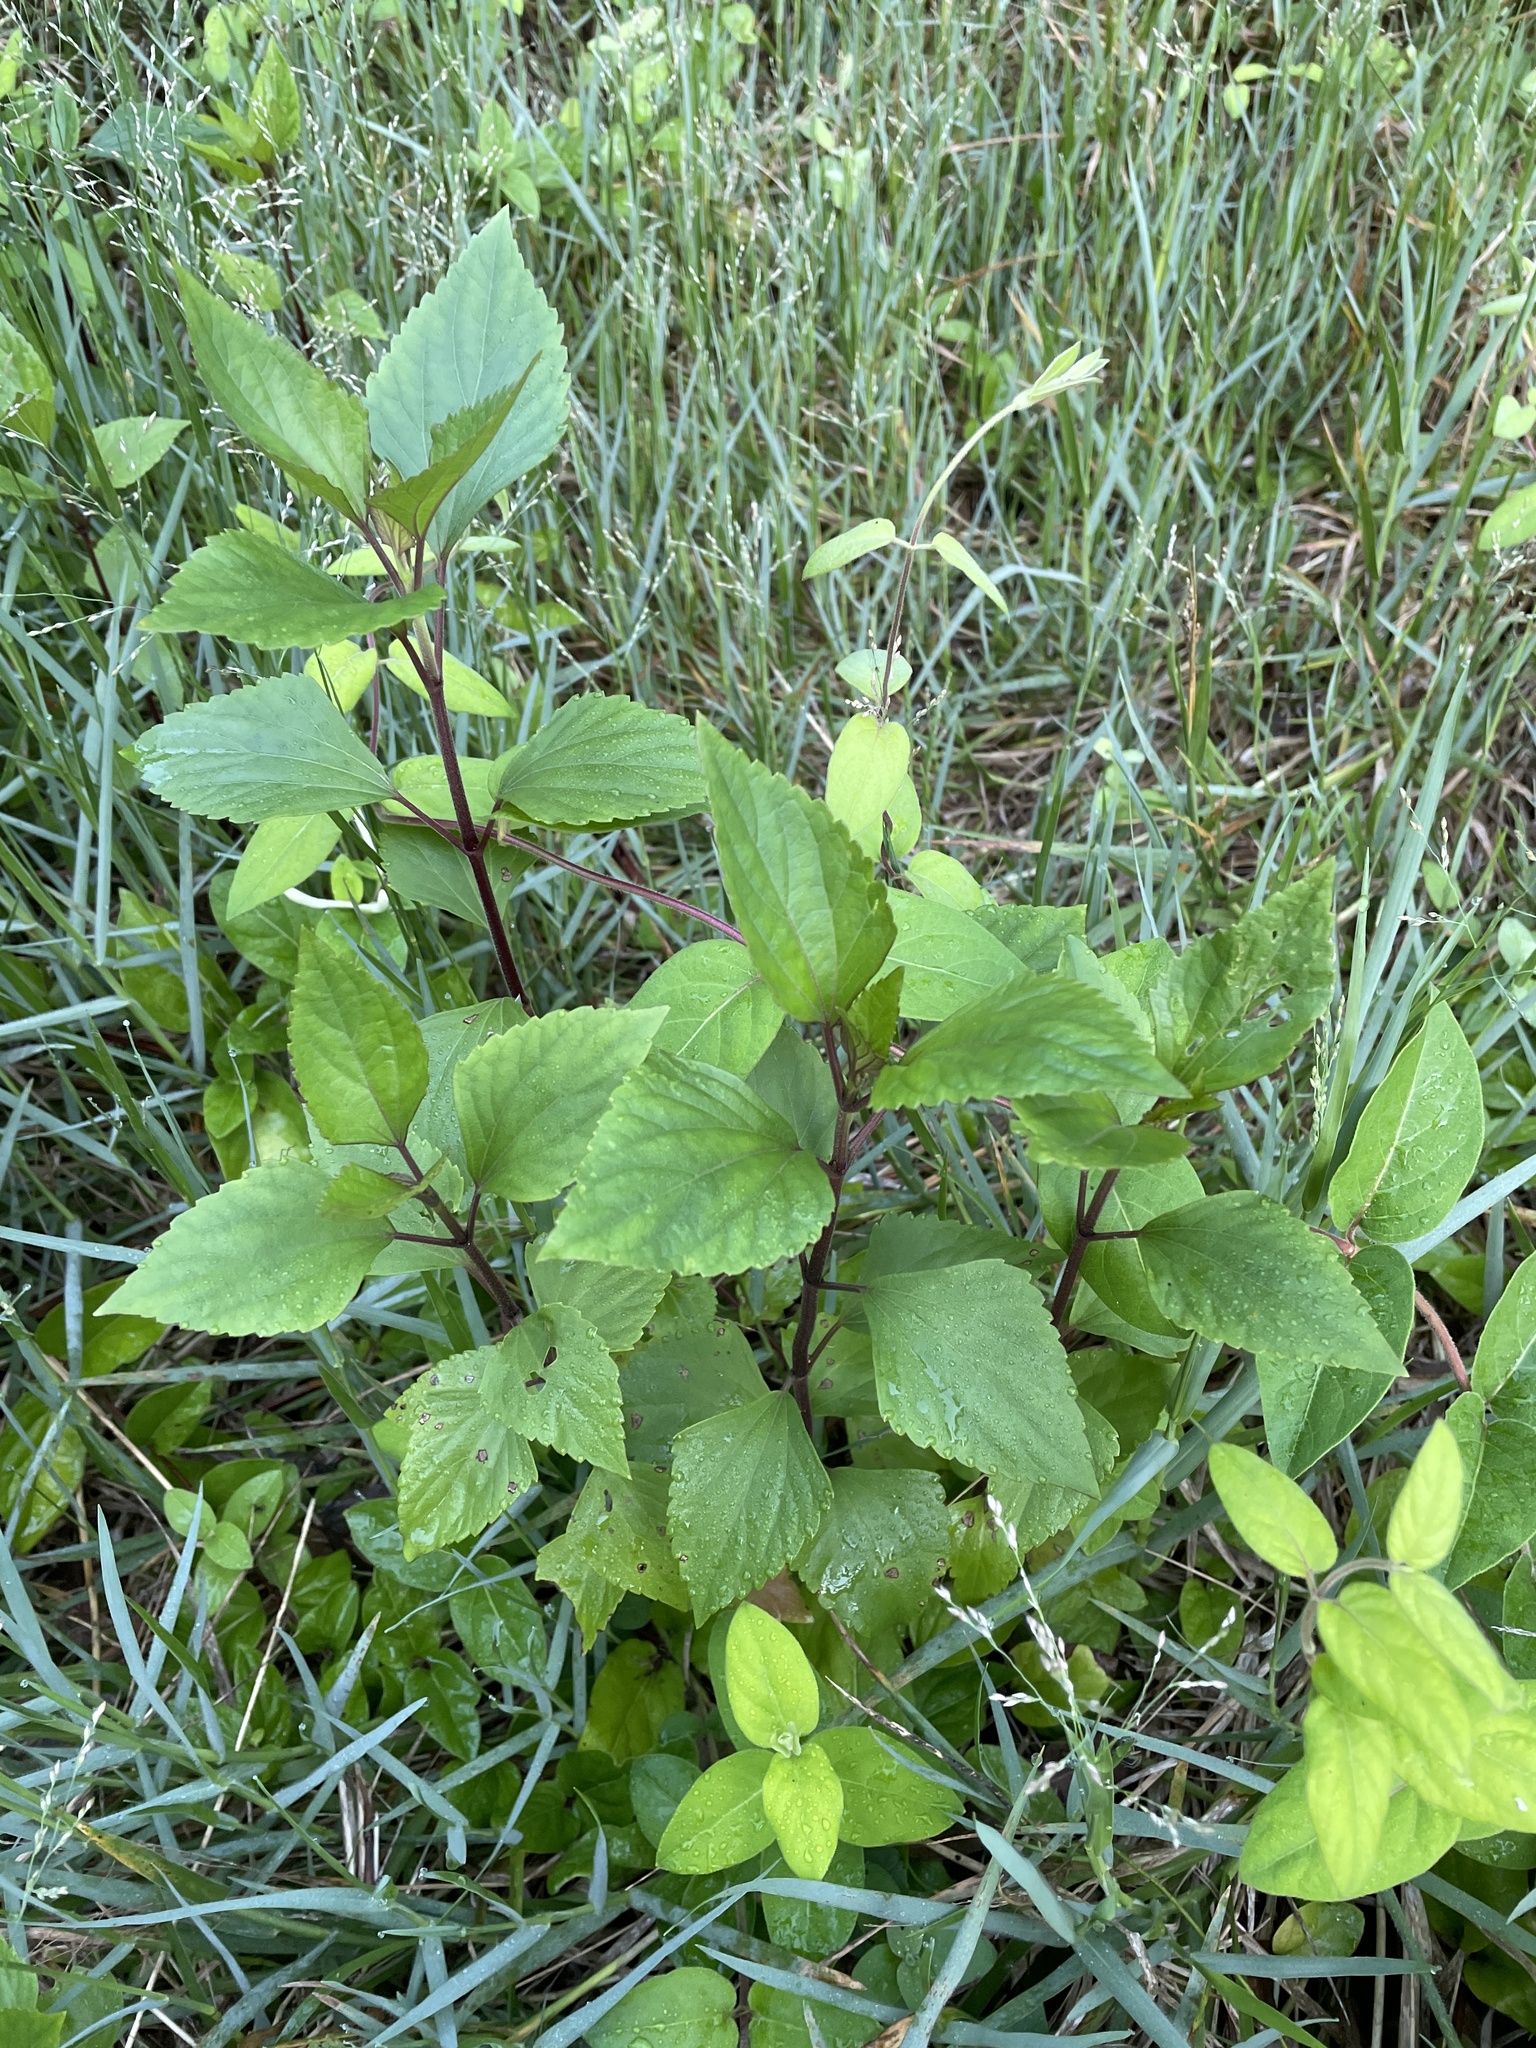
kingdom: Plantae
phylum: Tracheophyta
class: Magnoliopsida
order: Asterales
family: Asteraceae
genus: Ageratina
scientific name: Ageratina adenophora
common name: Sticky snakeroot
